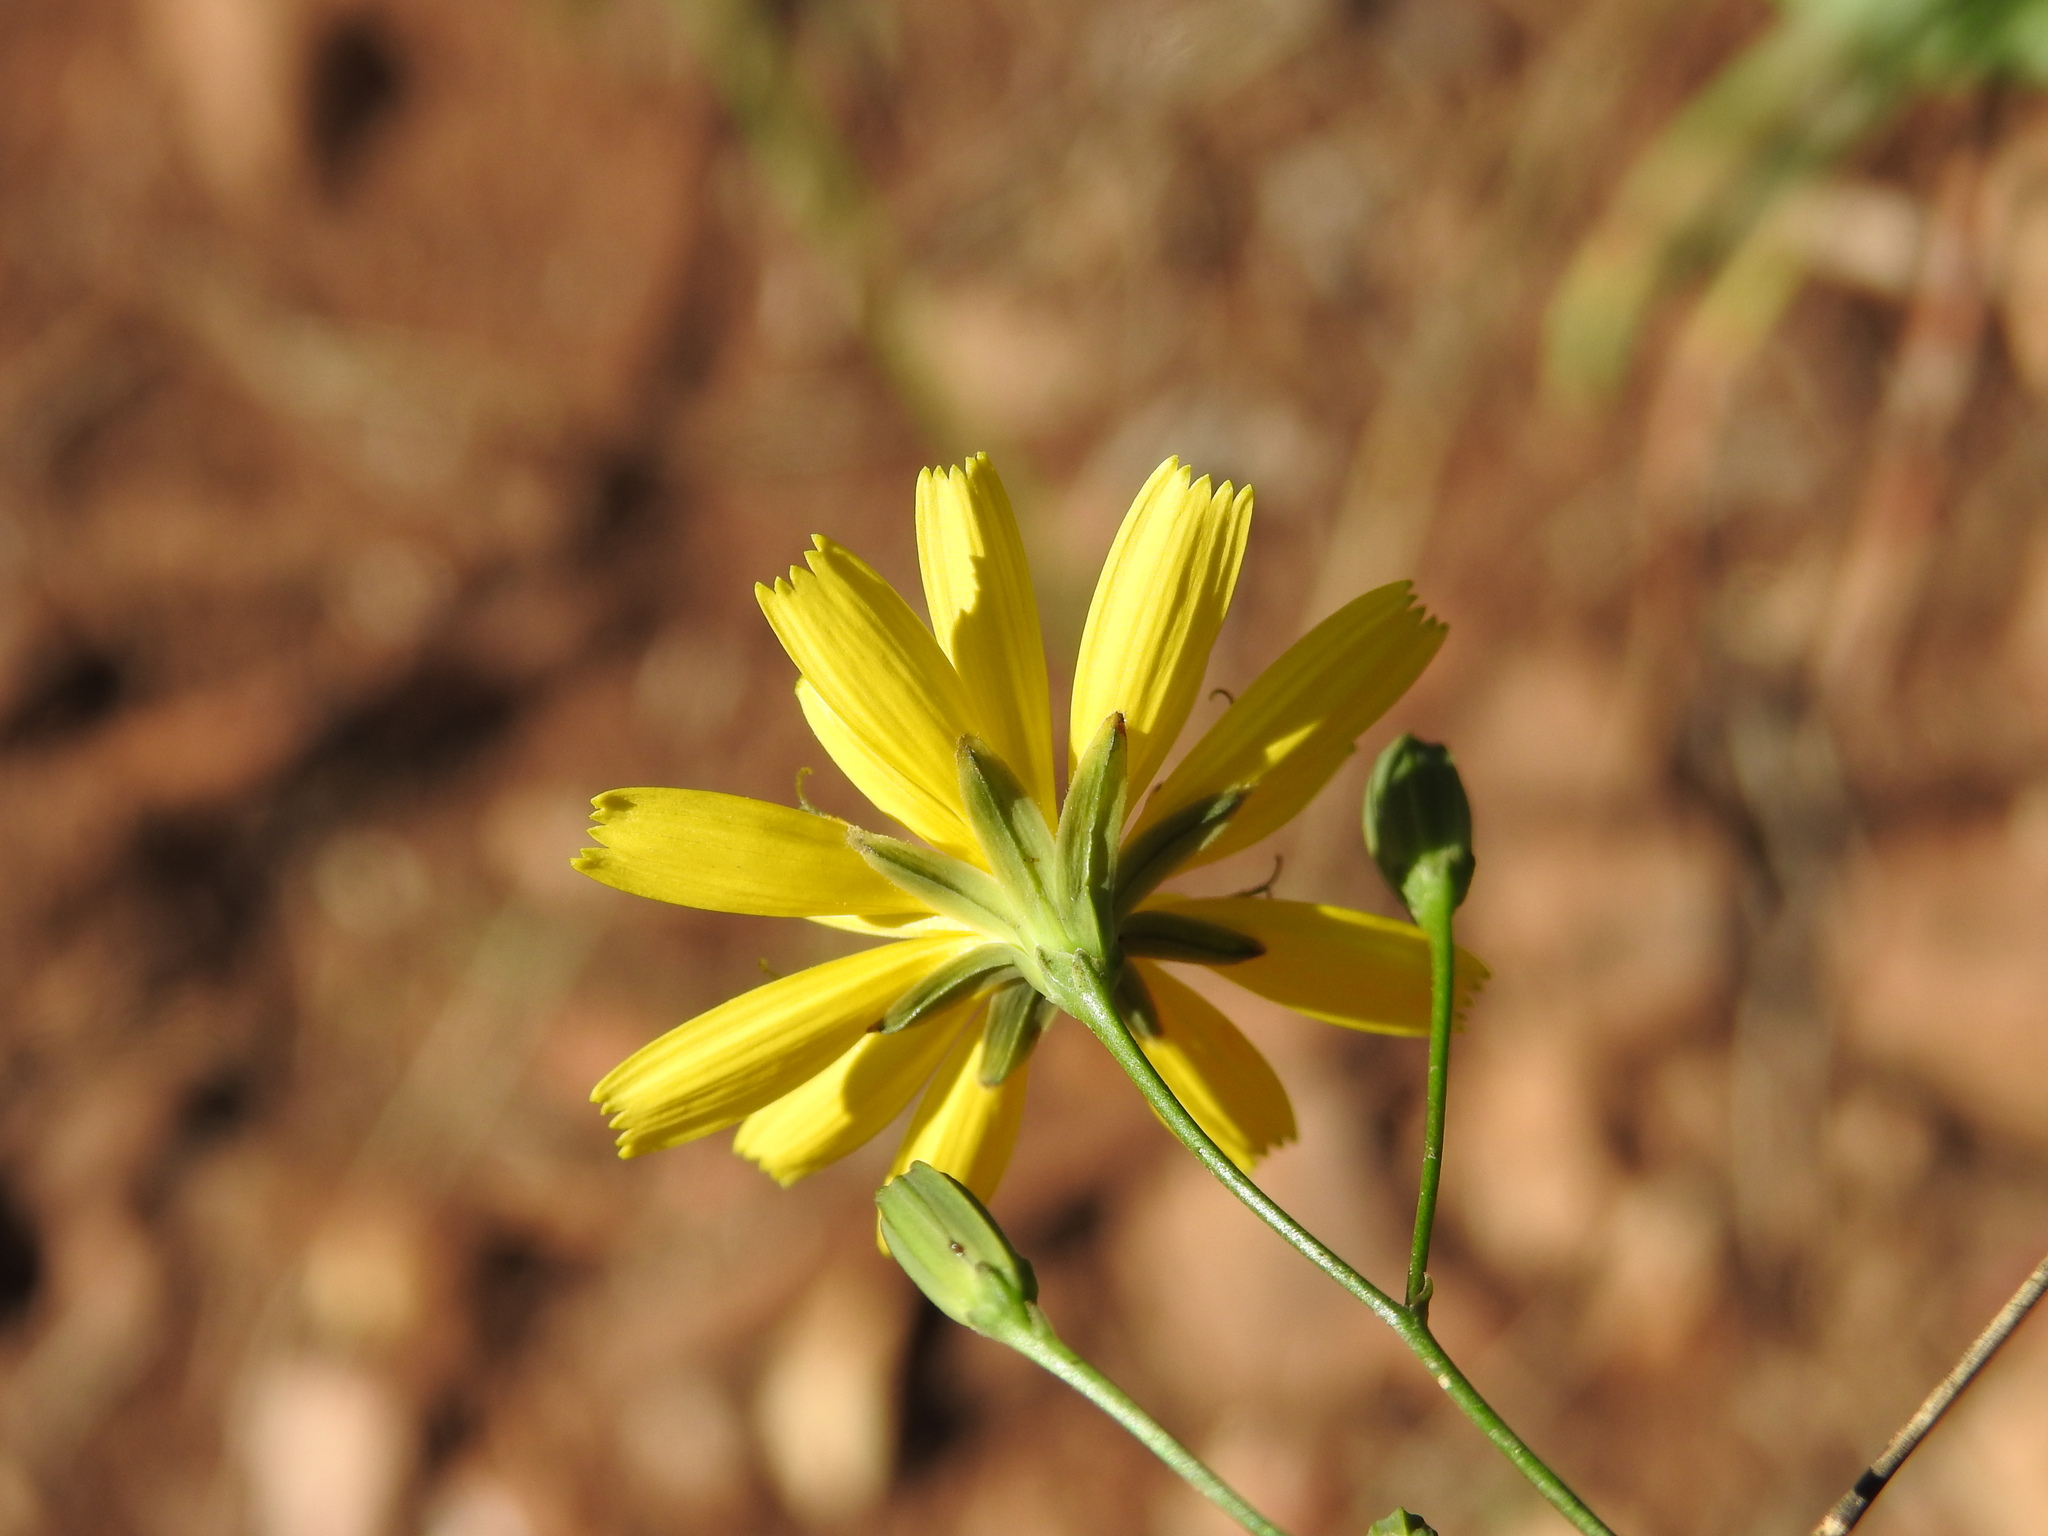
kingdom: Plantae
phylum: Tracheophyta
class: Magnoliopsida
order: Asterales
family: Asteraceae
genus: Lapsana
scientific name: Lapsana communis
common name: Nipplewort
